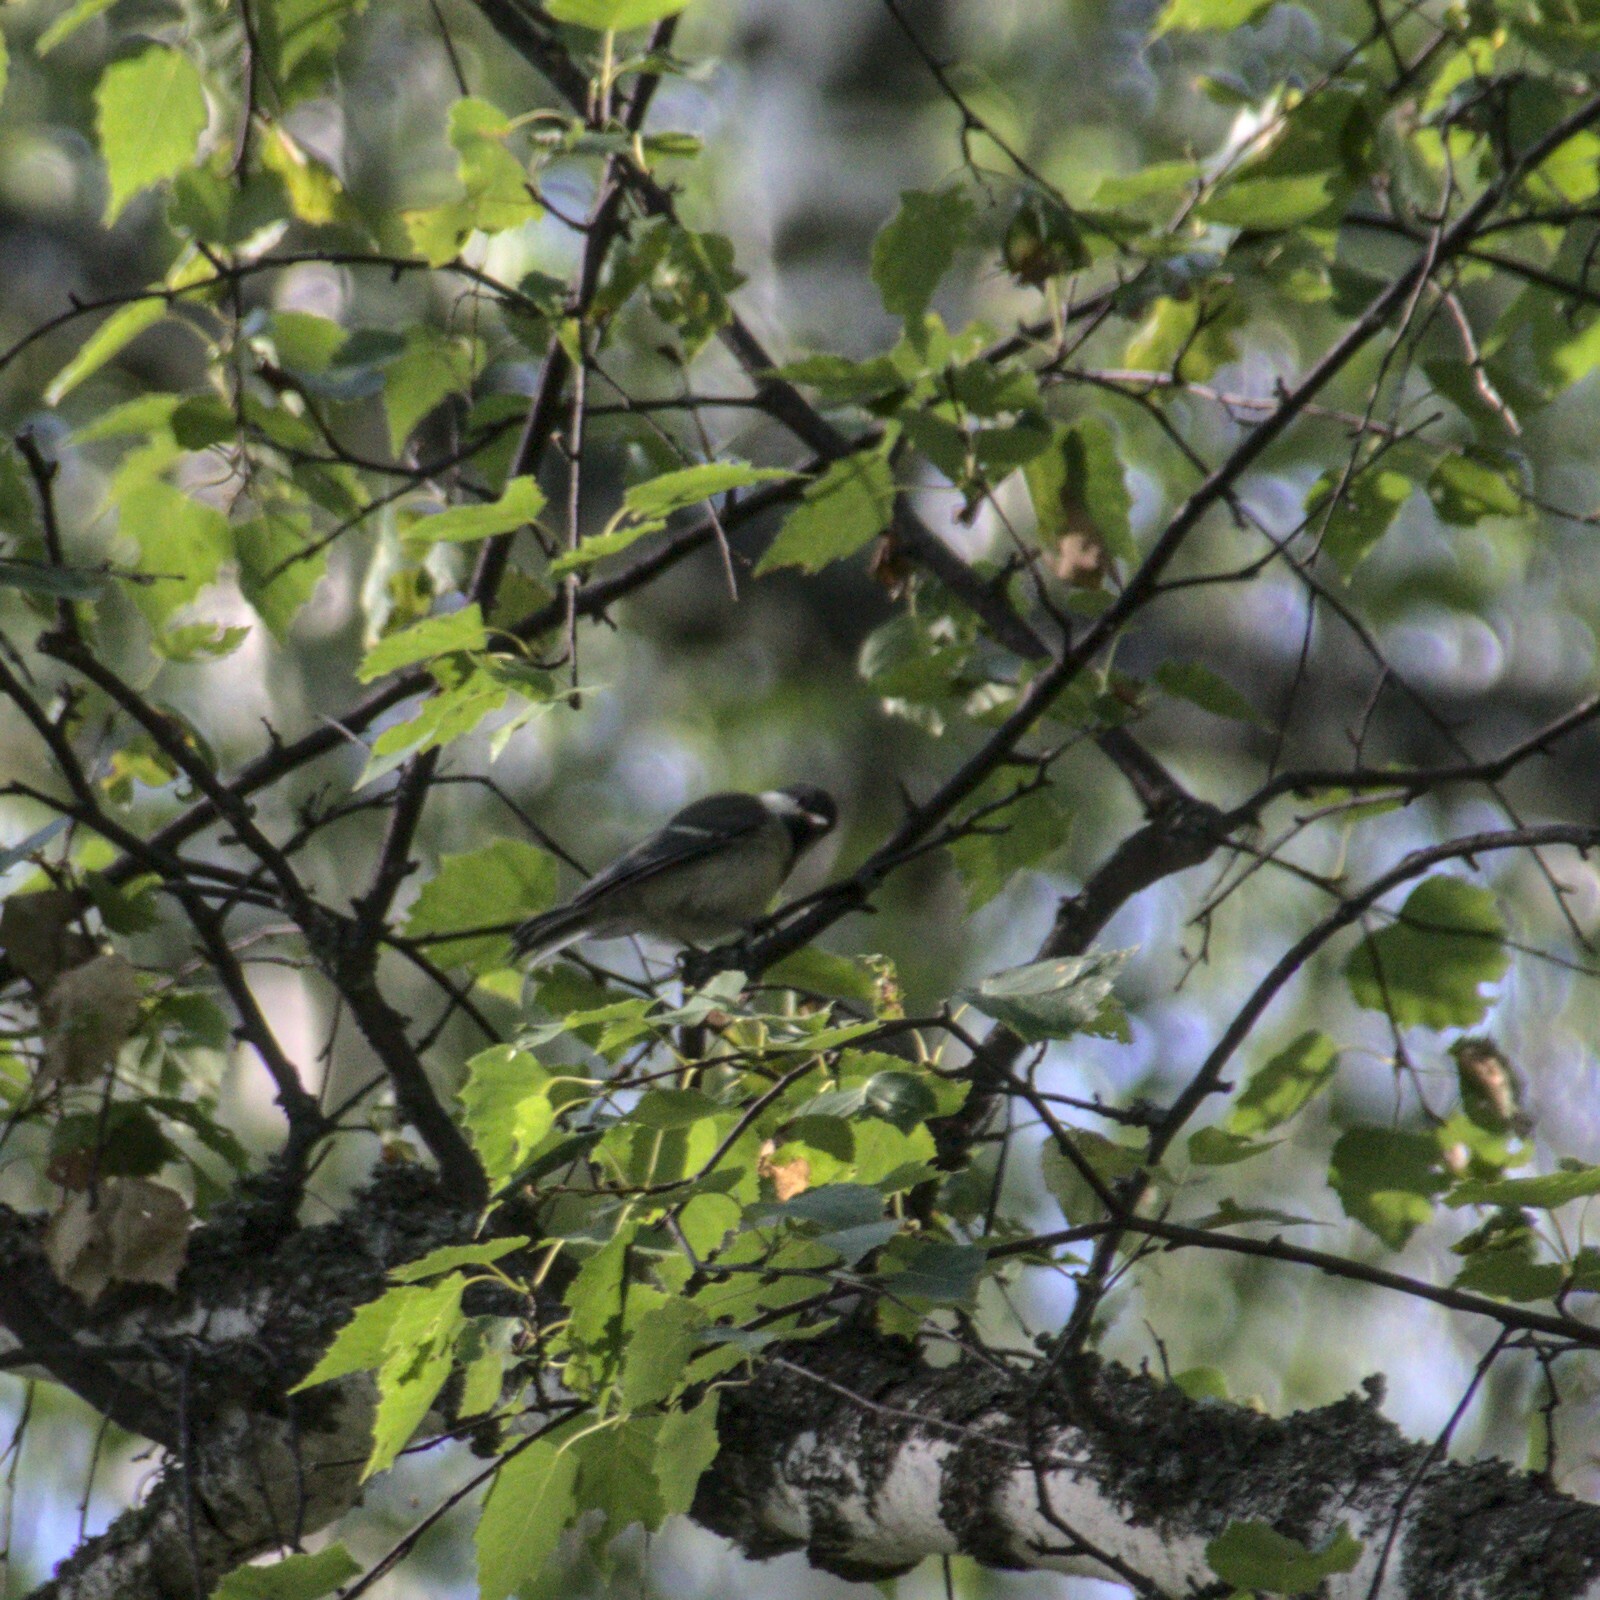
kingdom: Animalia
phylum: Chordata
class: Aves
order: Passeriformes
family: Paridae
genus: Parus
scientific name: Parus major
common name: Great tit
